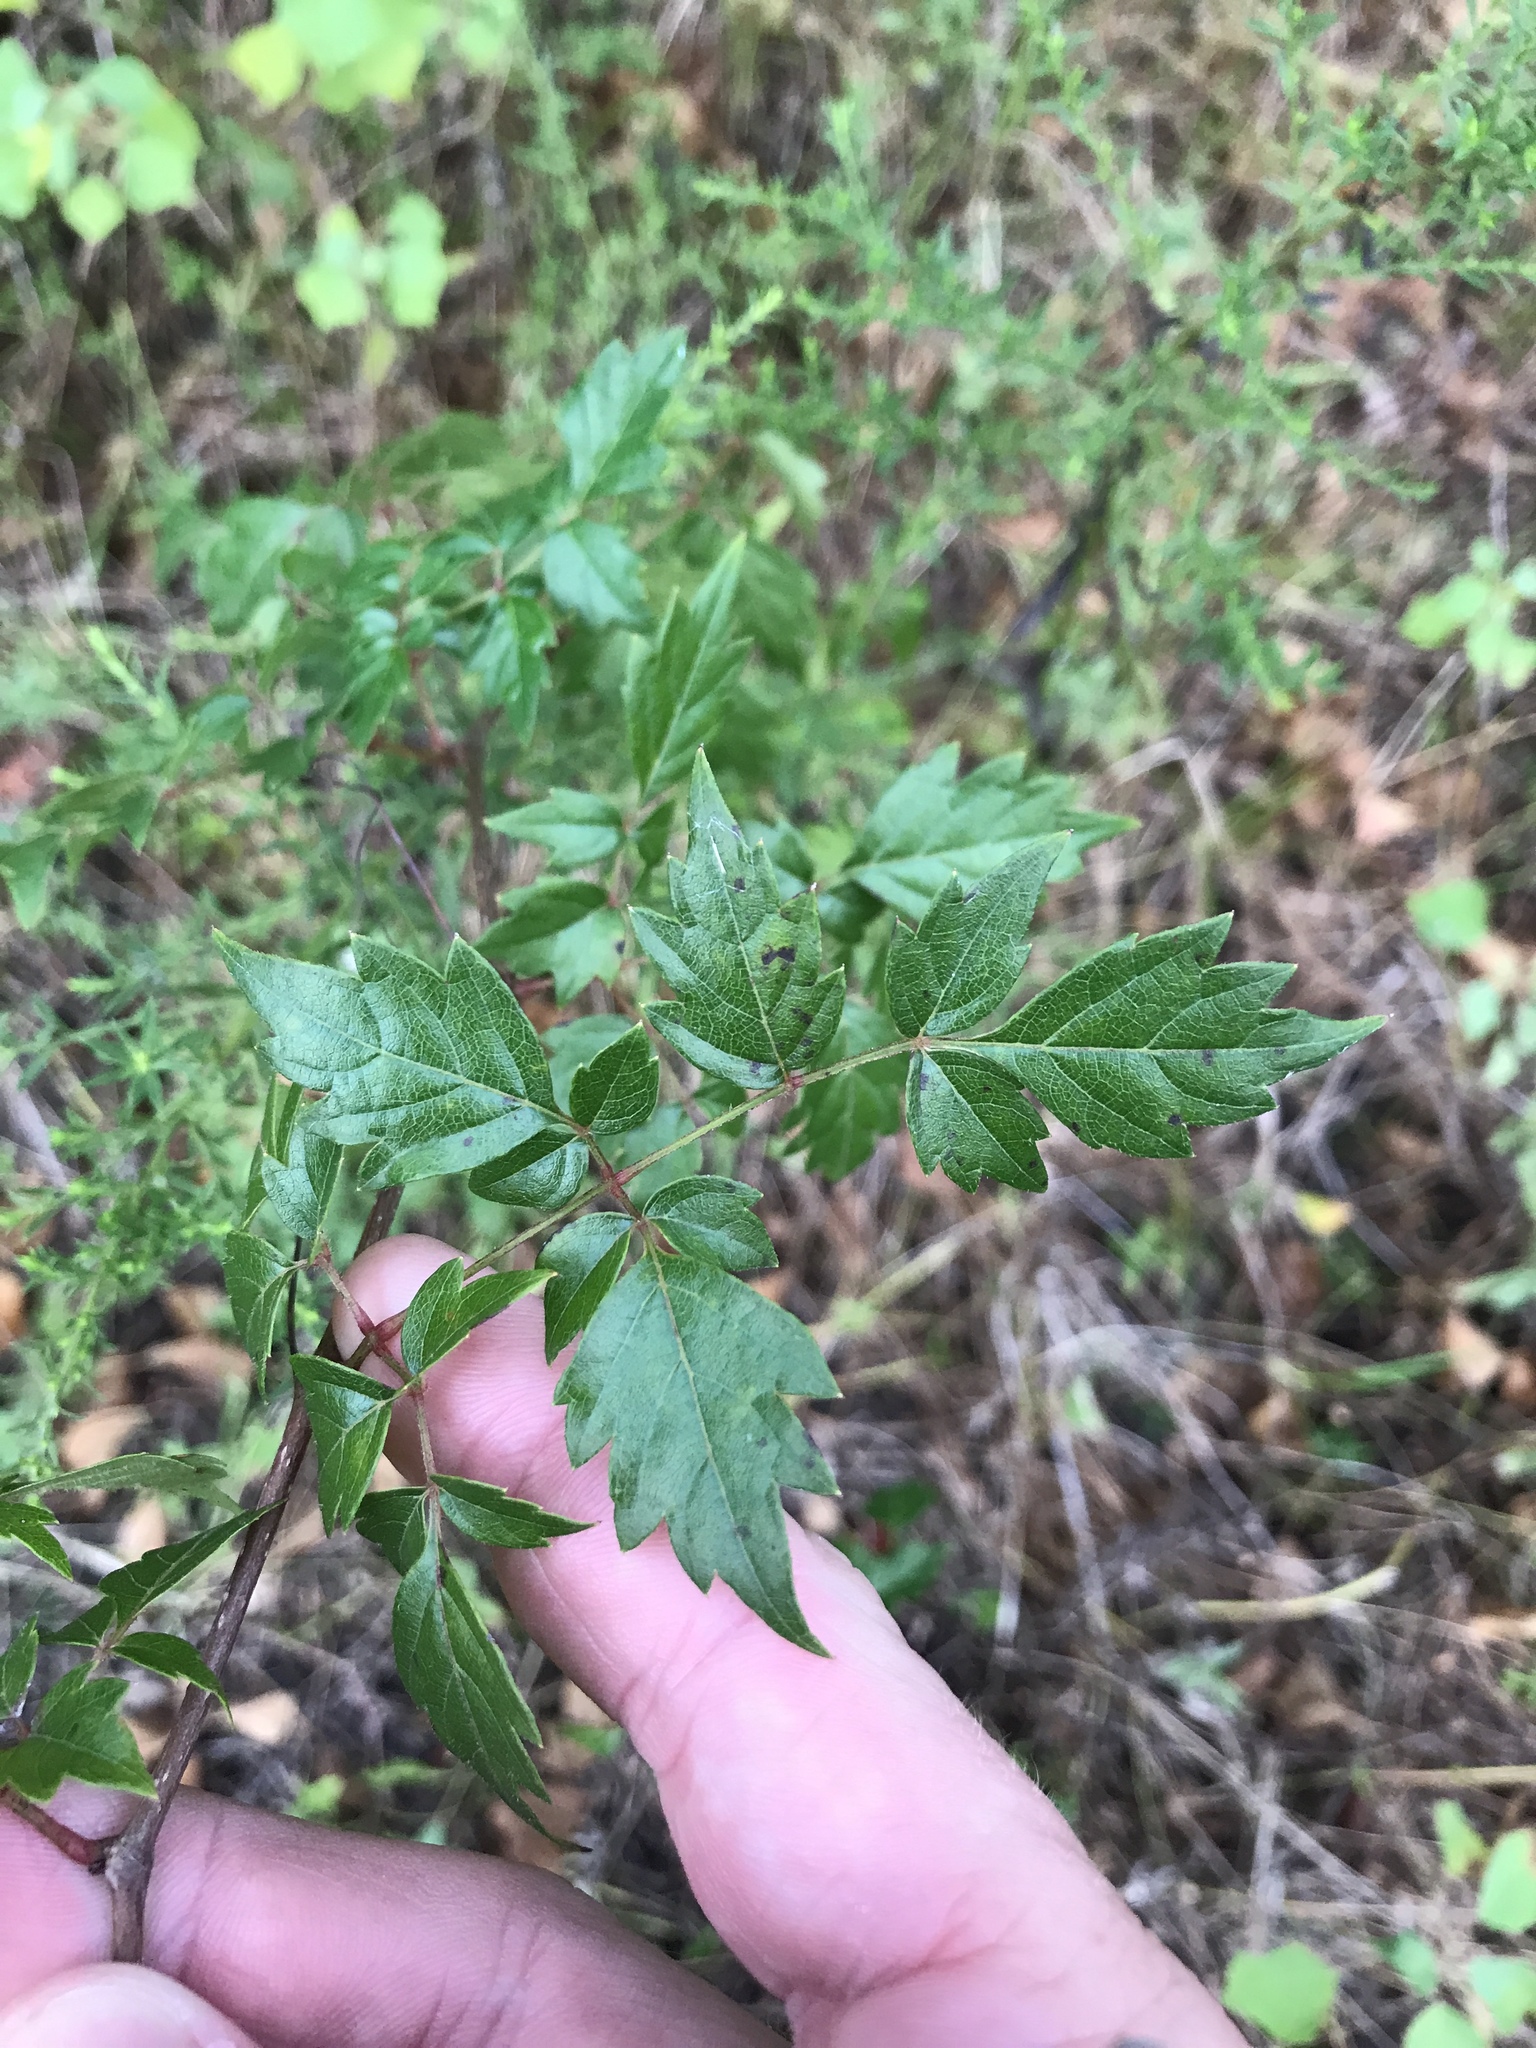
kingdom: Plantae
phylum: Tracheophyta
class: Magnoliopsida
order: Vitales
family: Vitaceae
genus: Nekemias
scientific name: Nekemias arborea
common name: Peppervine
